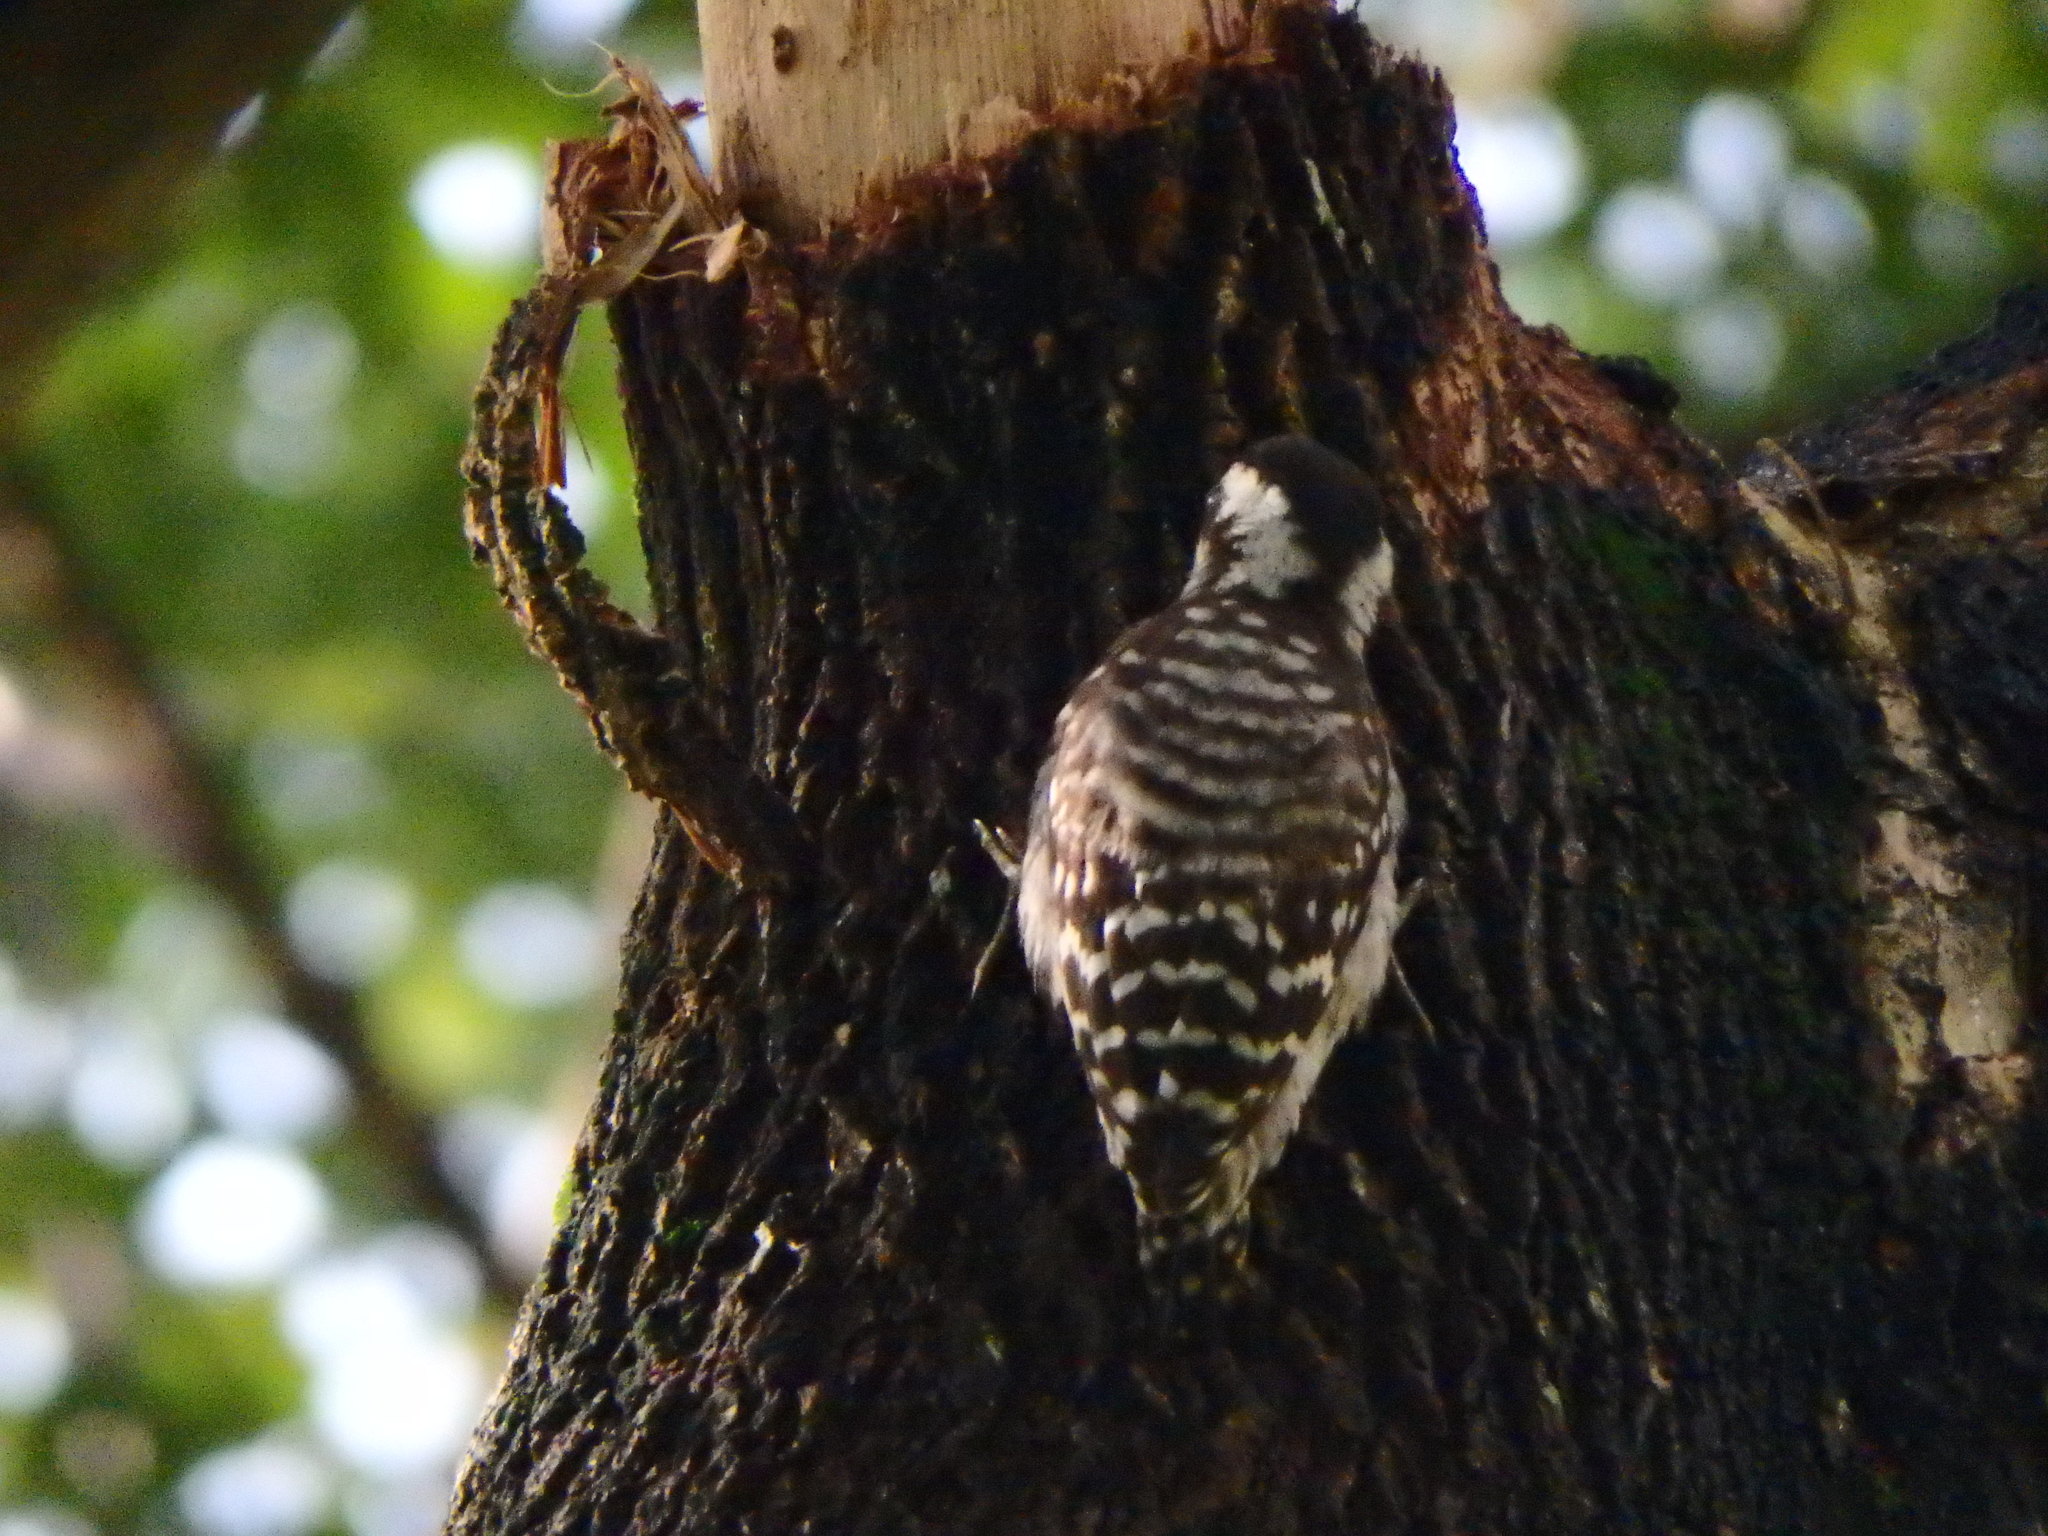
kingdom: Animalia
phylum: Chordata
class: Aves
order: Piciformes
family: Picidae
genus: Yungipicus
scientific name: Yungipicus moluccensis
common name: Sunda pygmy woodpecker
